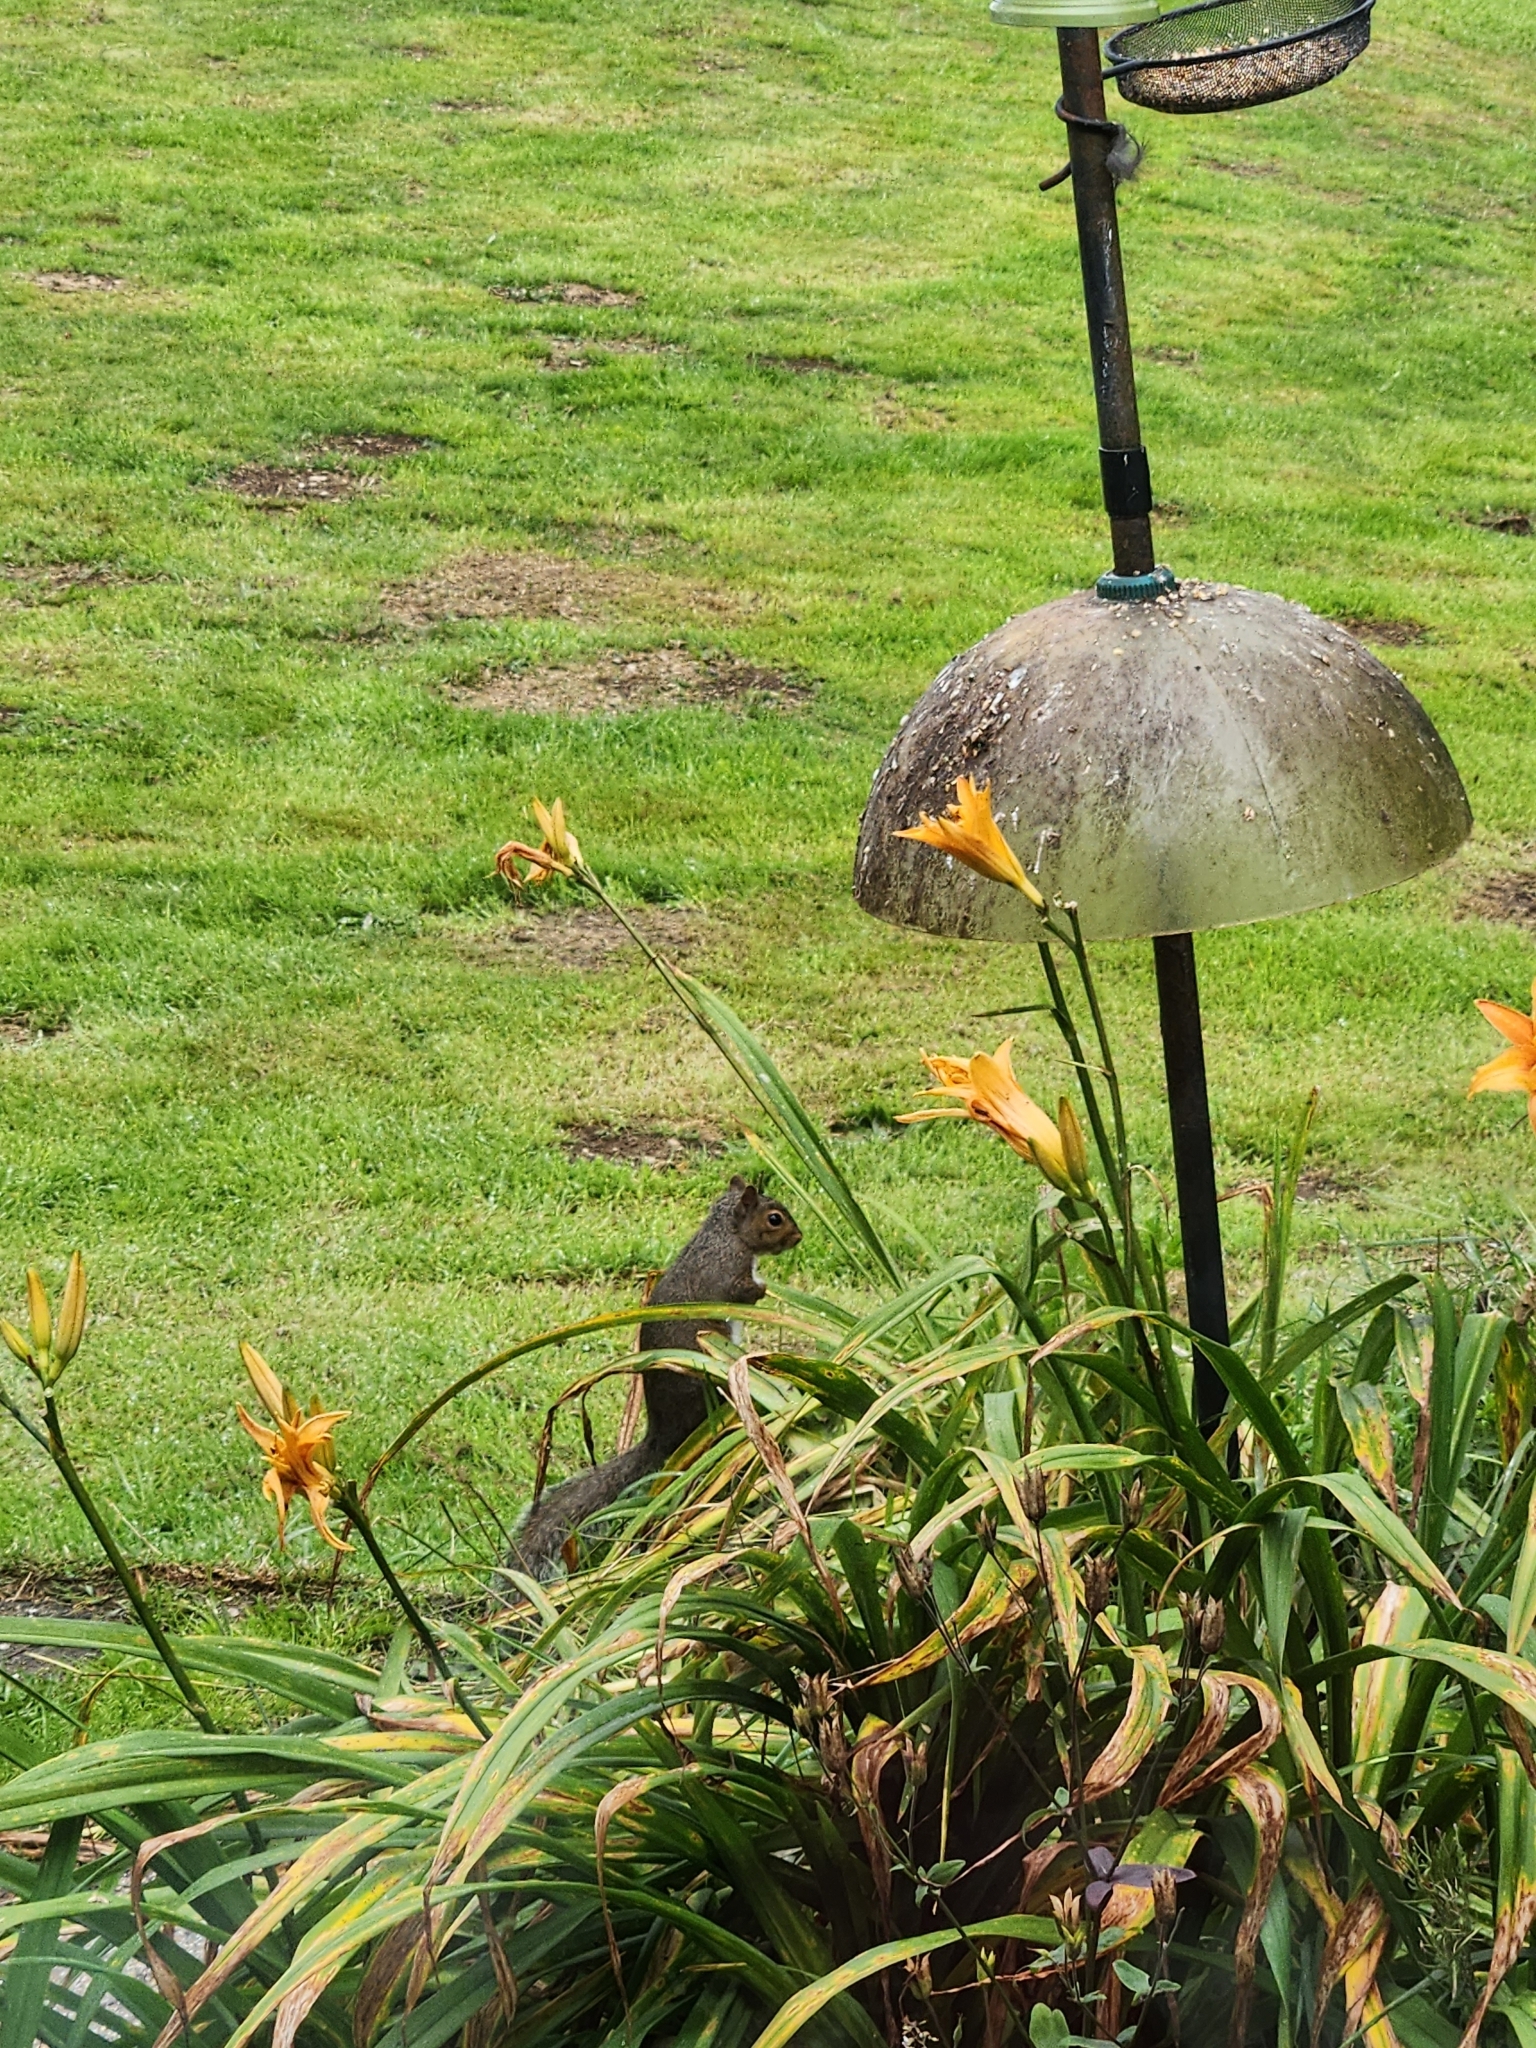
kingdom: Animalia
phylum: Chordata
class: Mammalia
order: Rodentia
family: Sciuridae
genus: Sciurus
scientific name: Sciurus carolinensis
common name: Eastern gray squirrel
